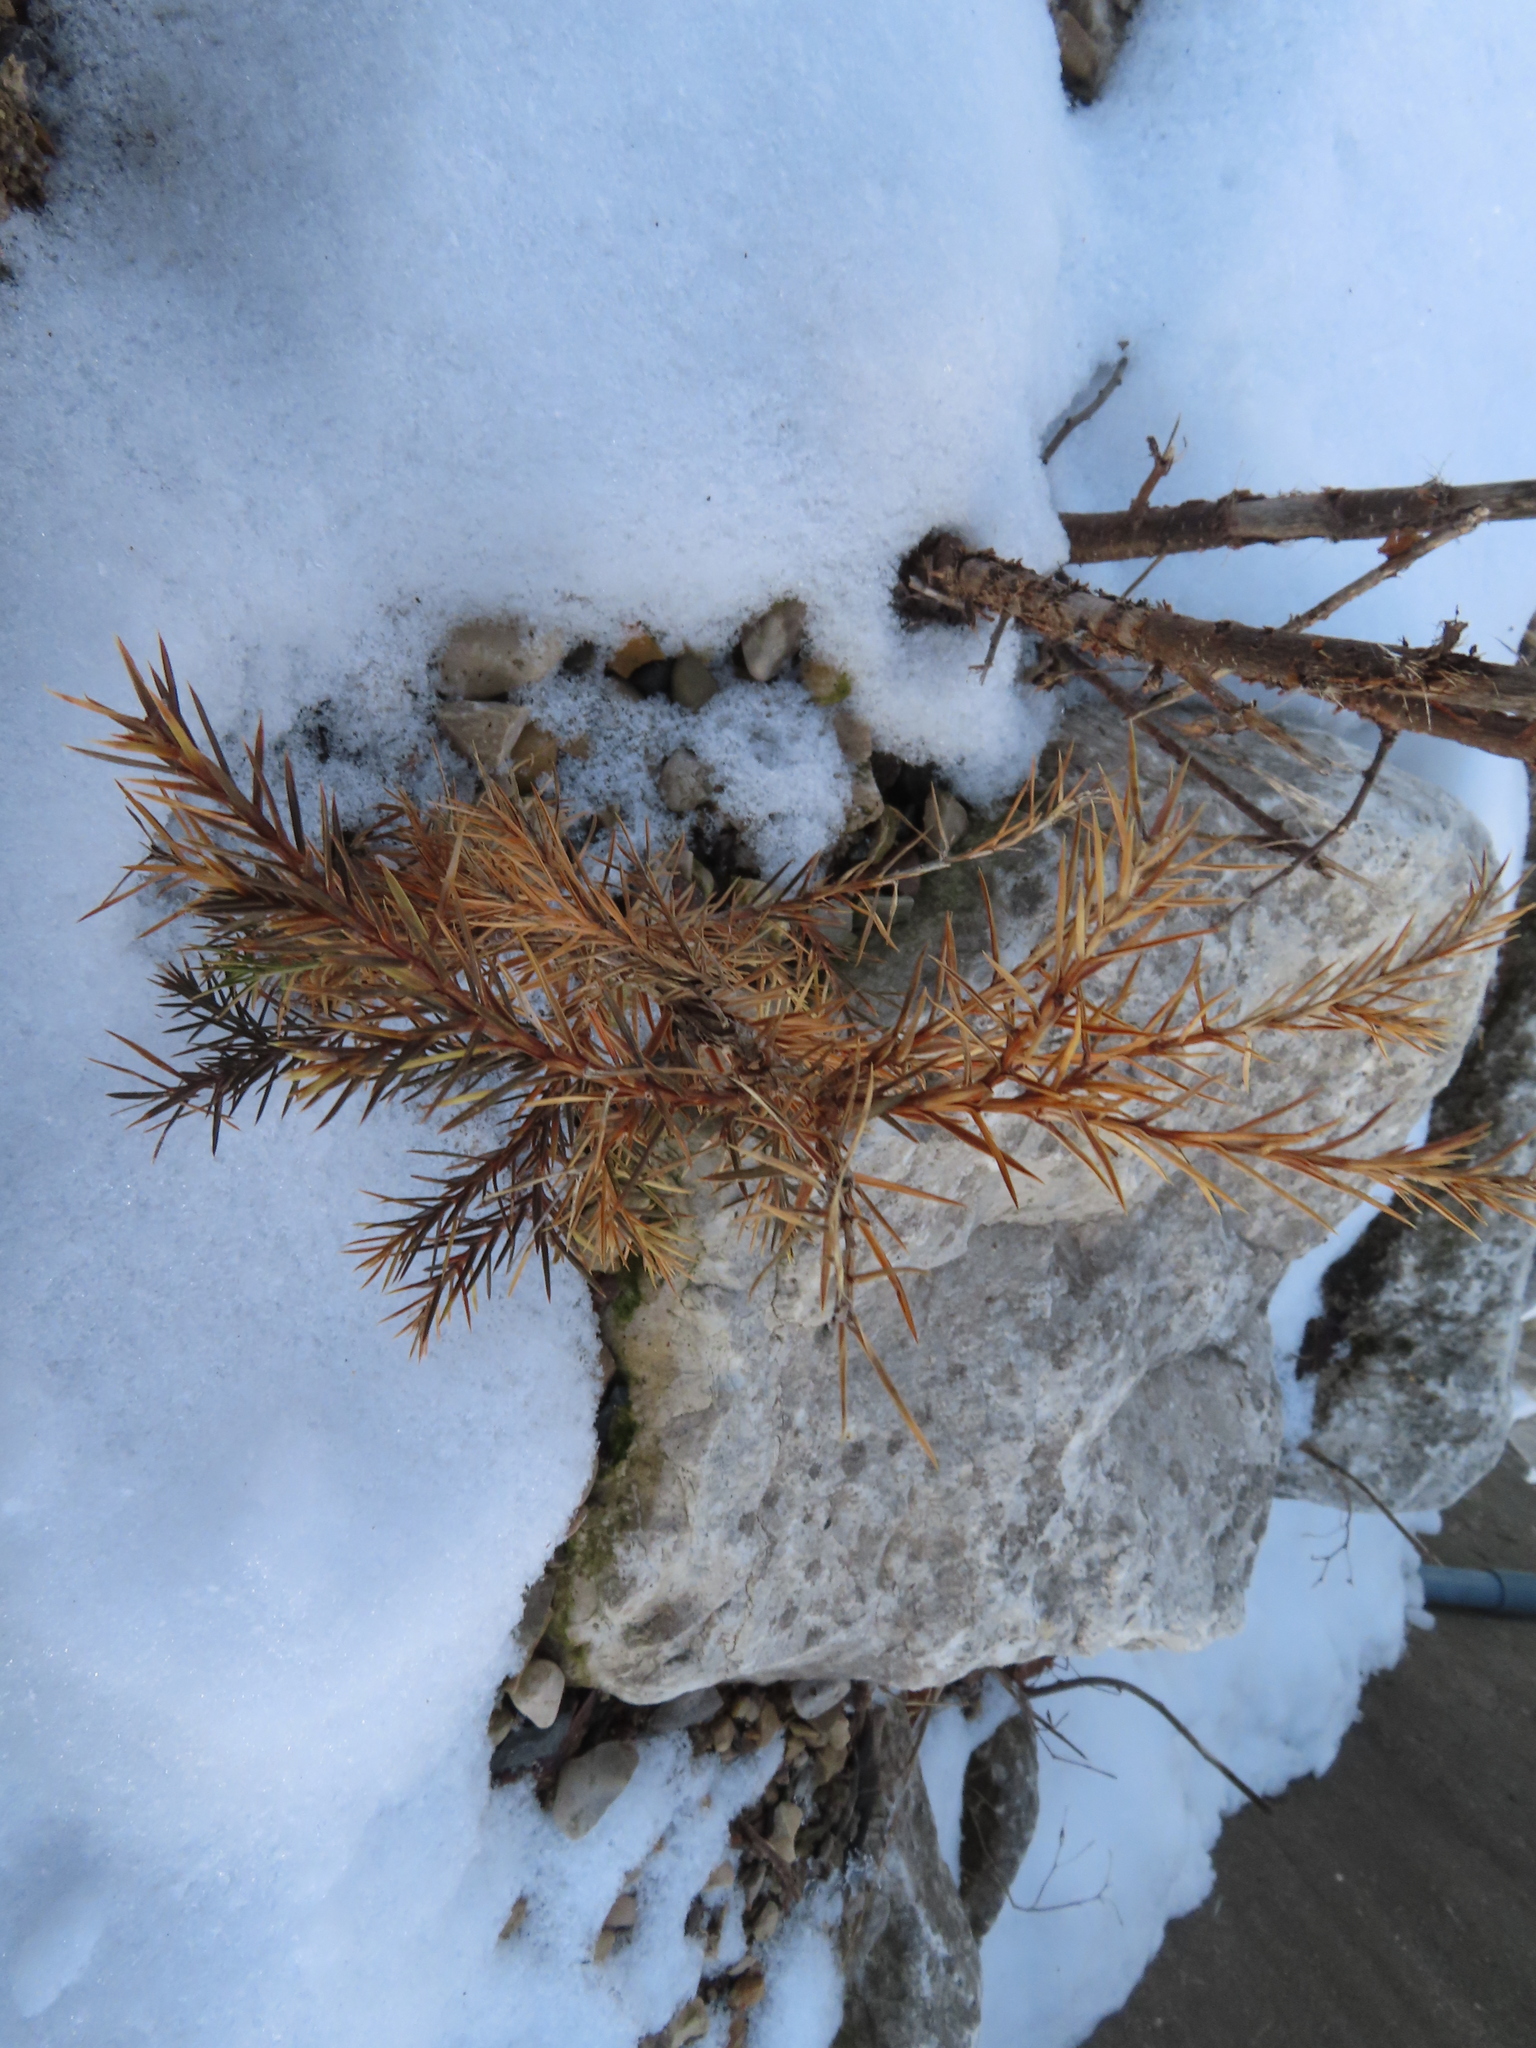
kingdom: Plantae
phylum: Tracheophyta
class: Pinopsida
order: Pinales
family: Cupressaceae
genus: Juniperus
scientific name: Juniperus virginiana
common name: Red juniper
